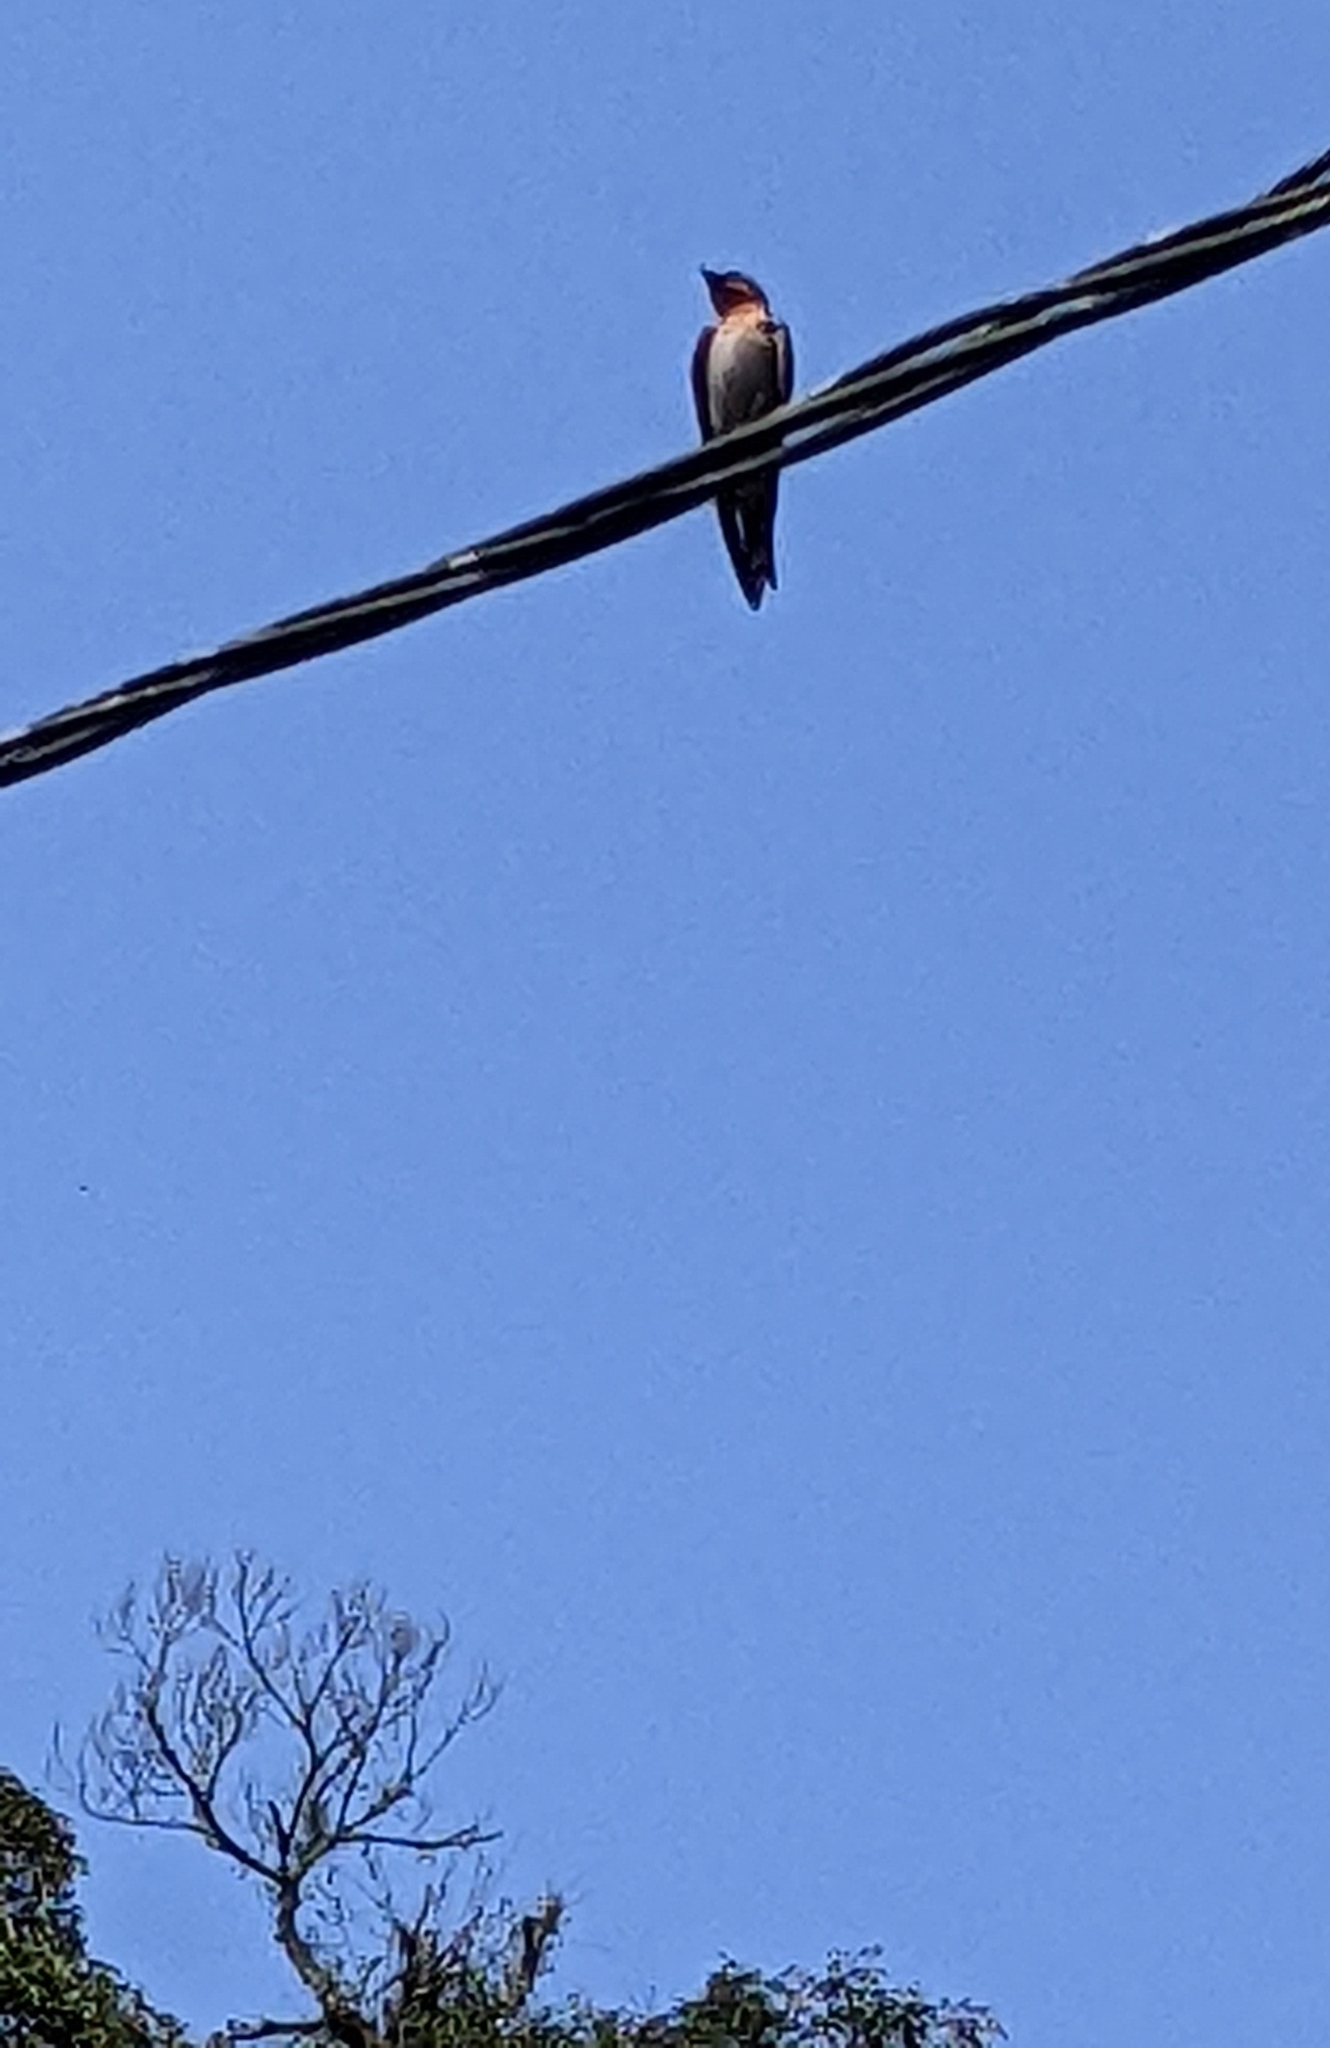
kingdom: Animalia
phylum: Chordata
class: Aves
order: Passeriformes
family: Hirundinidae
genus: Hirundo
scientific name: Hirundo tahitica
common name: Pacific swallow
